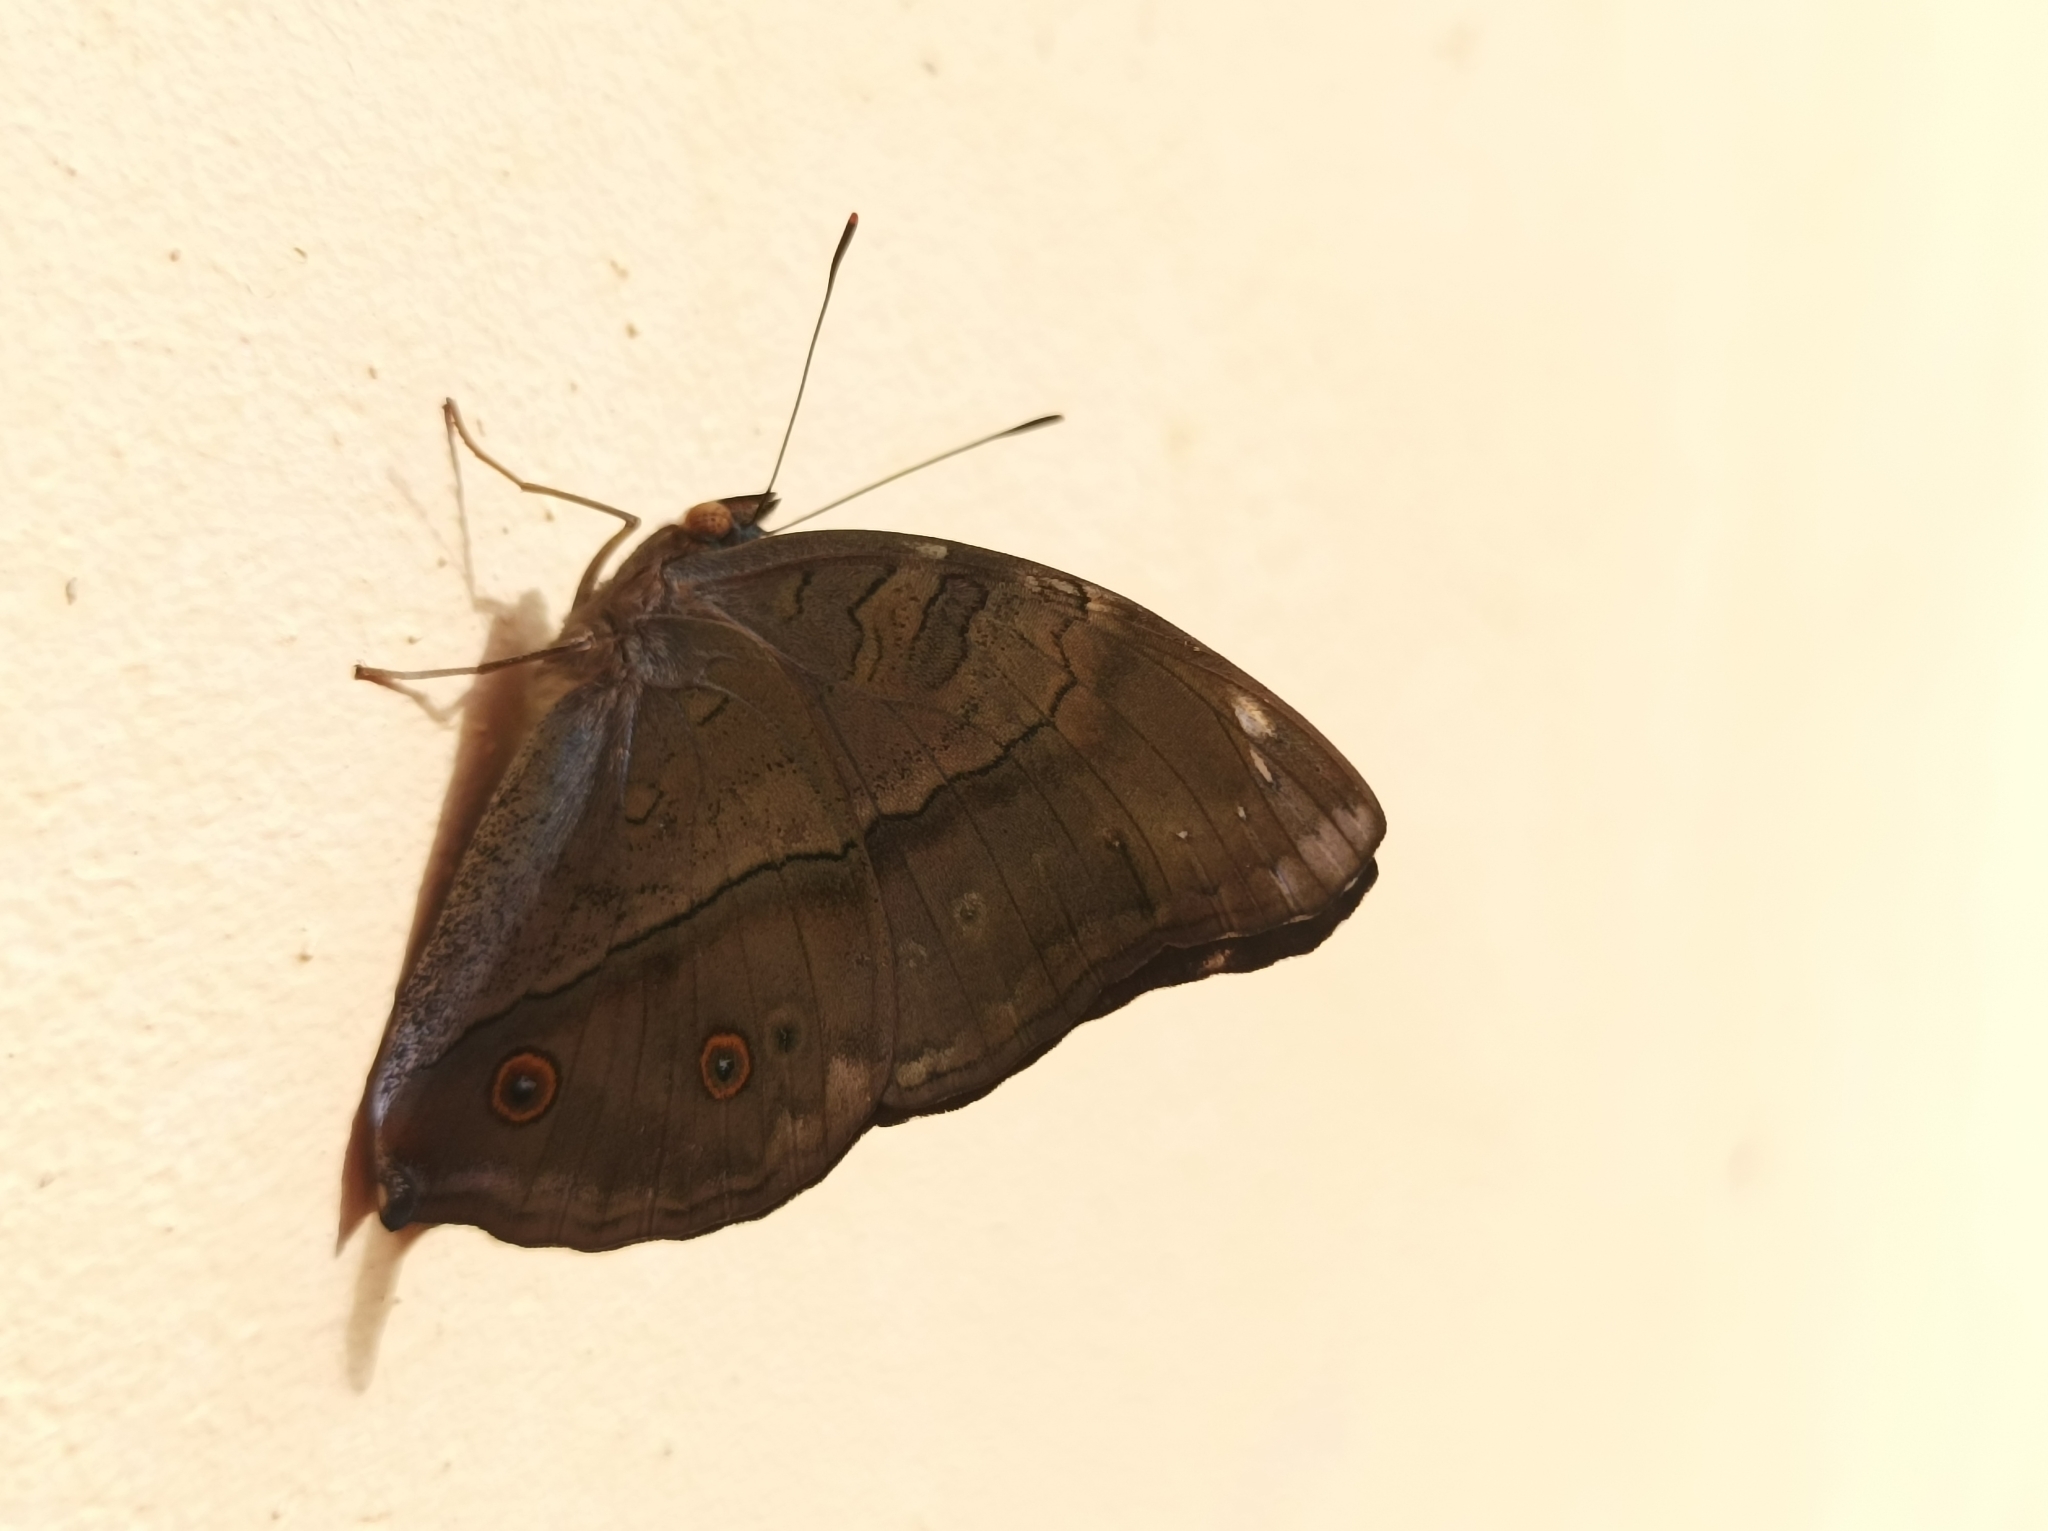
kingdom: Animalia
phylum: Arthropoda
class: Insecta
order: Lepidoptera
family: Nymphalidae
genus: Doleschallia
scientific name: Doleschallia browni
